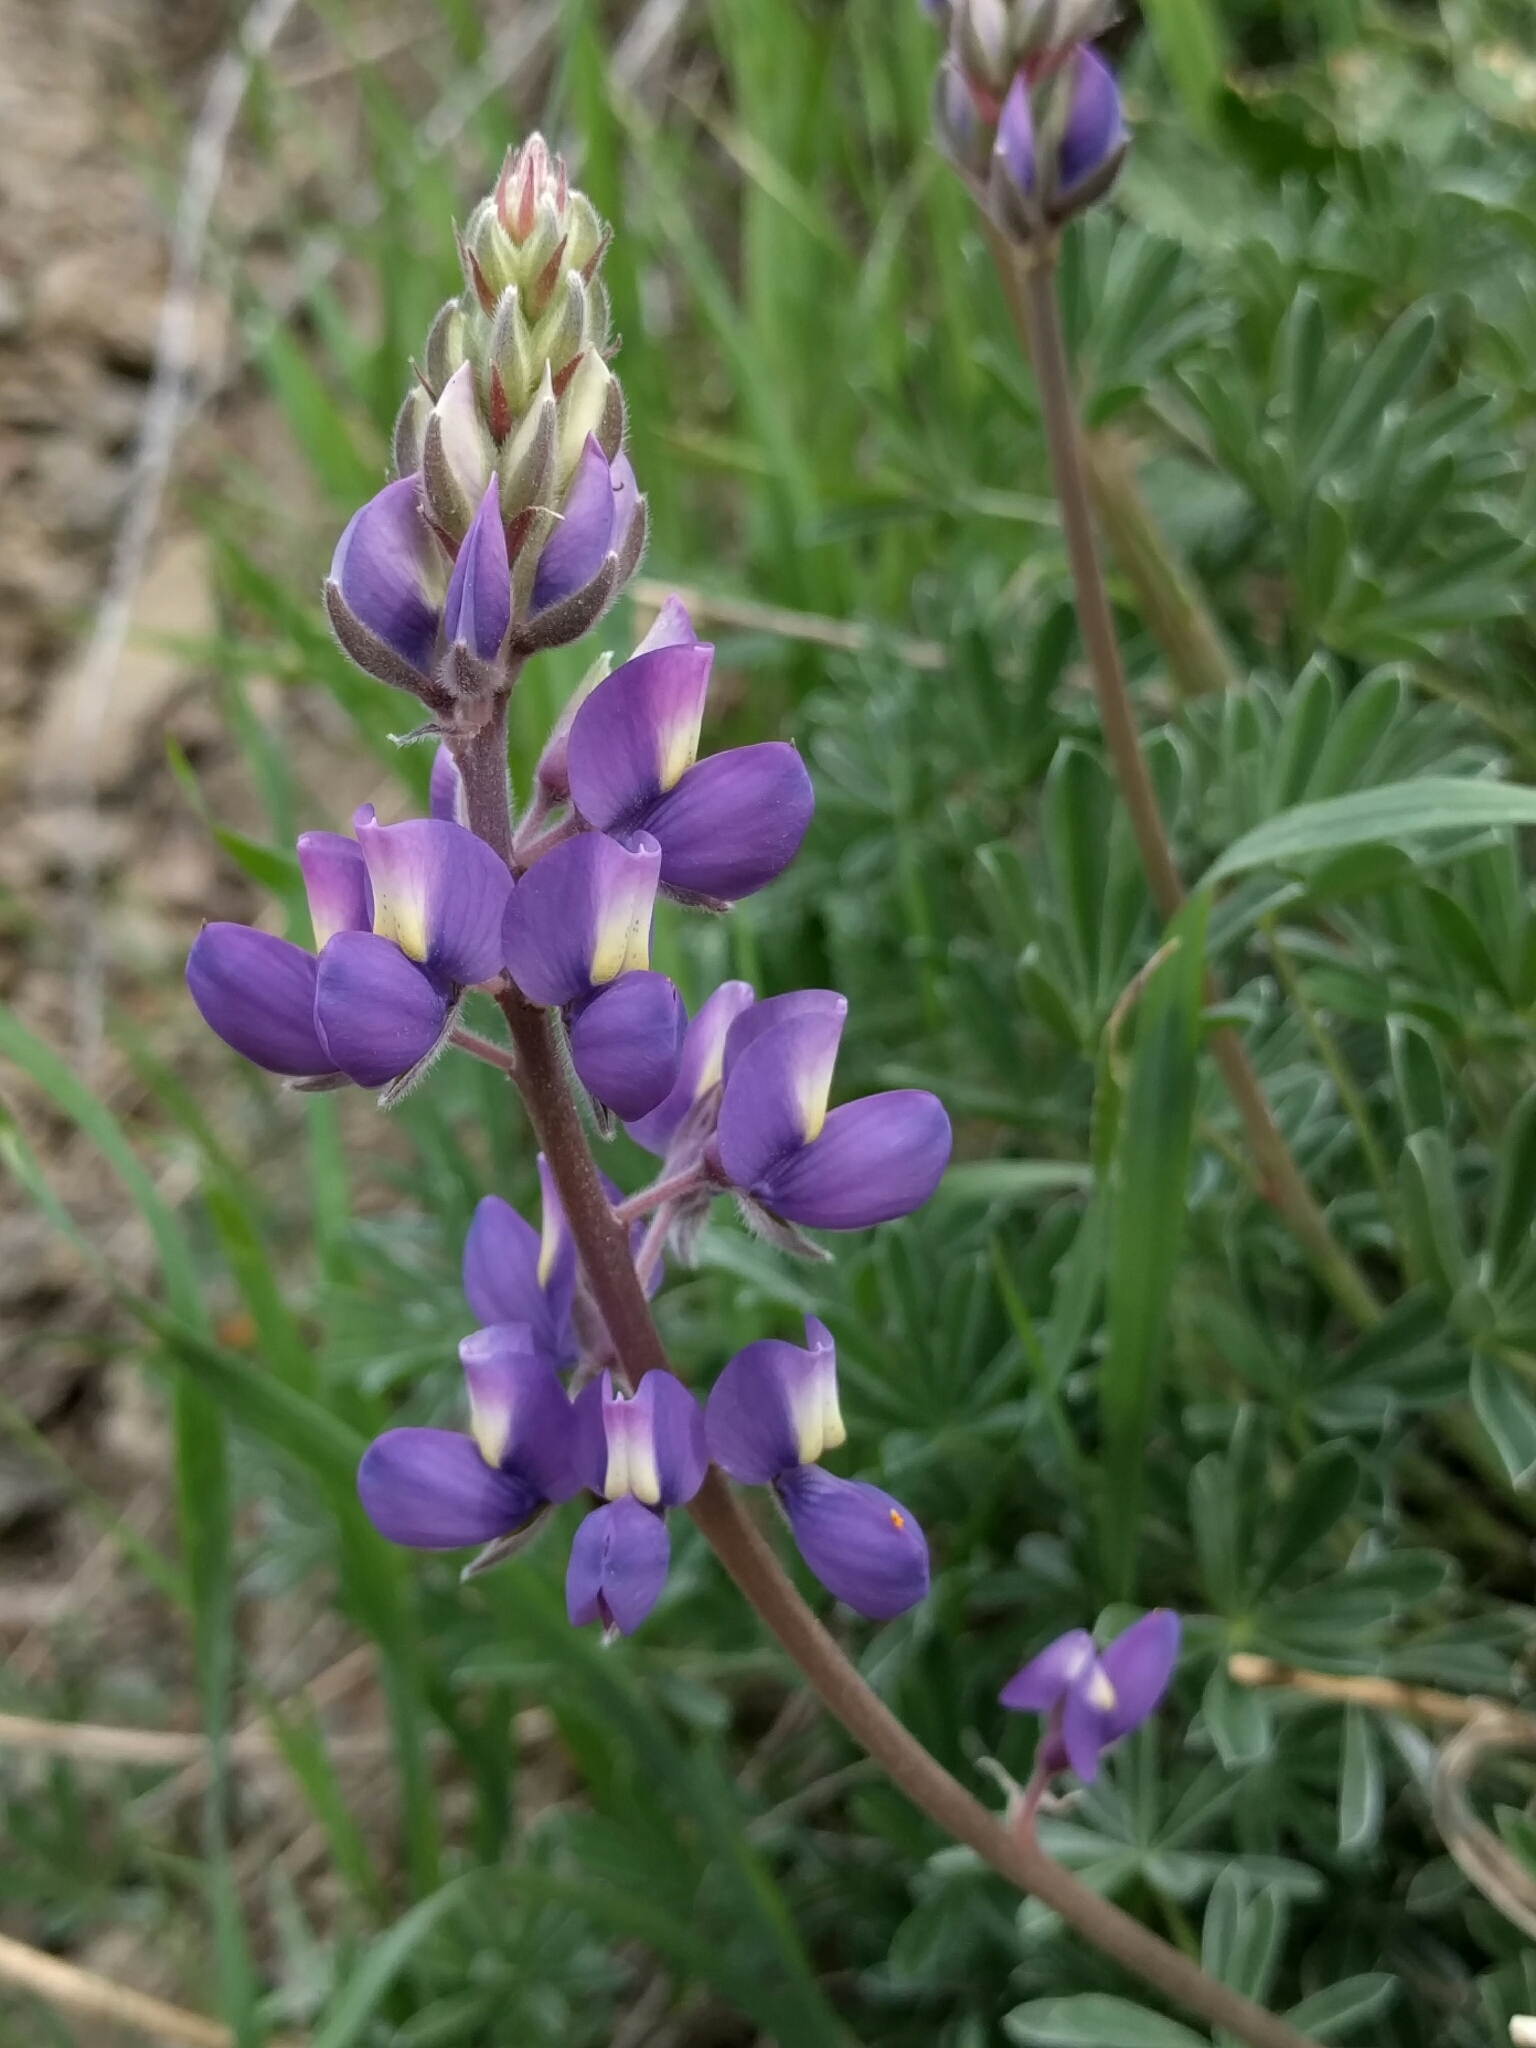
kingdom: Plantae
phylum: Tracheophyta
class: Magnoliopsida
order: Fabales
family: Fabaceae
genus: Lupinus
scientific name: Lupinus albifrons
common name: Foothill lupine
